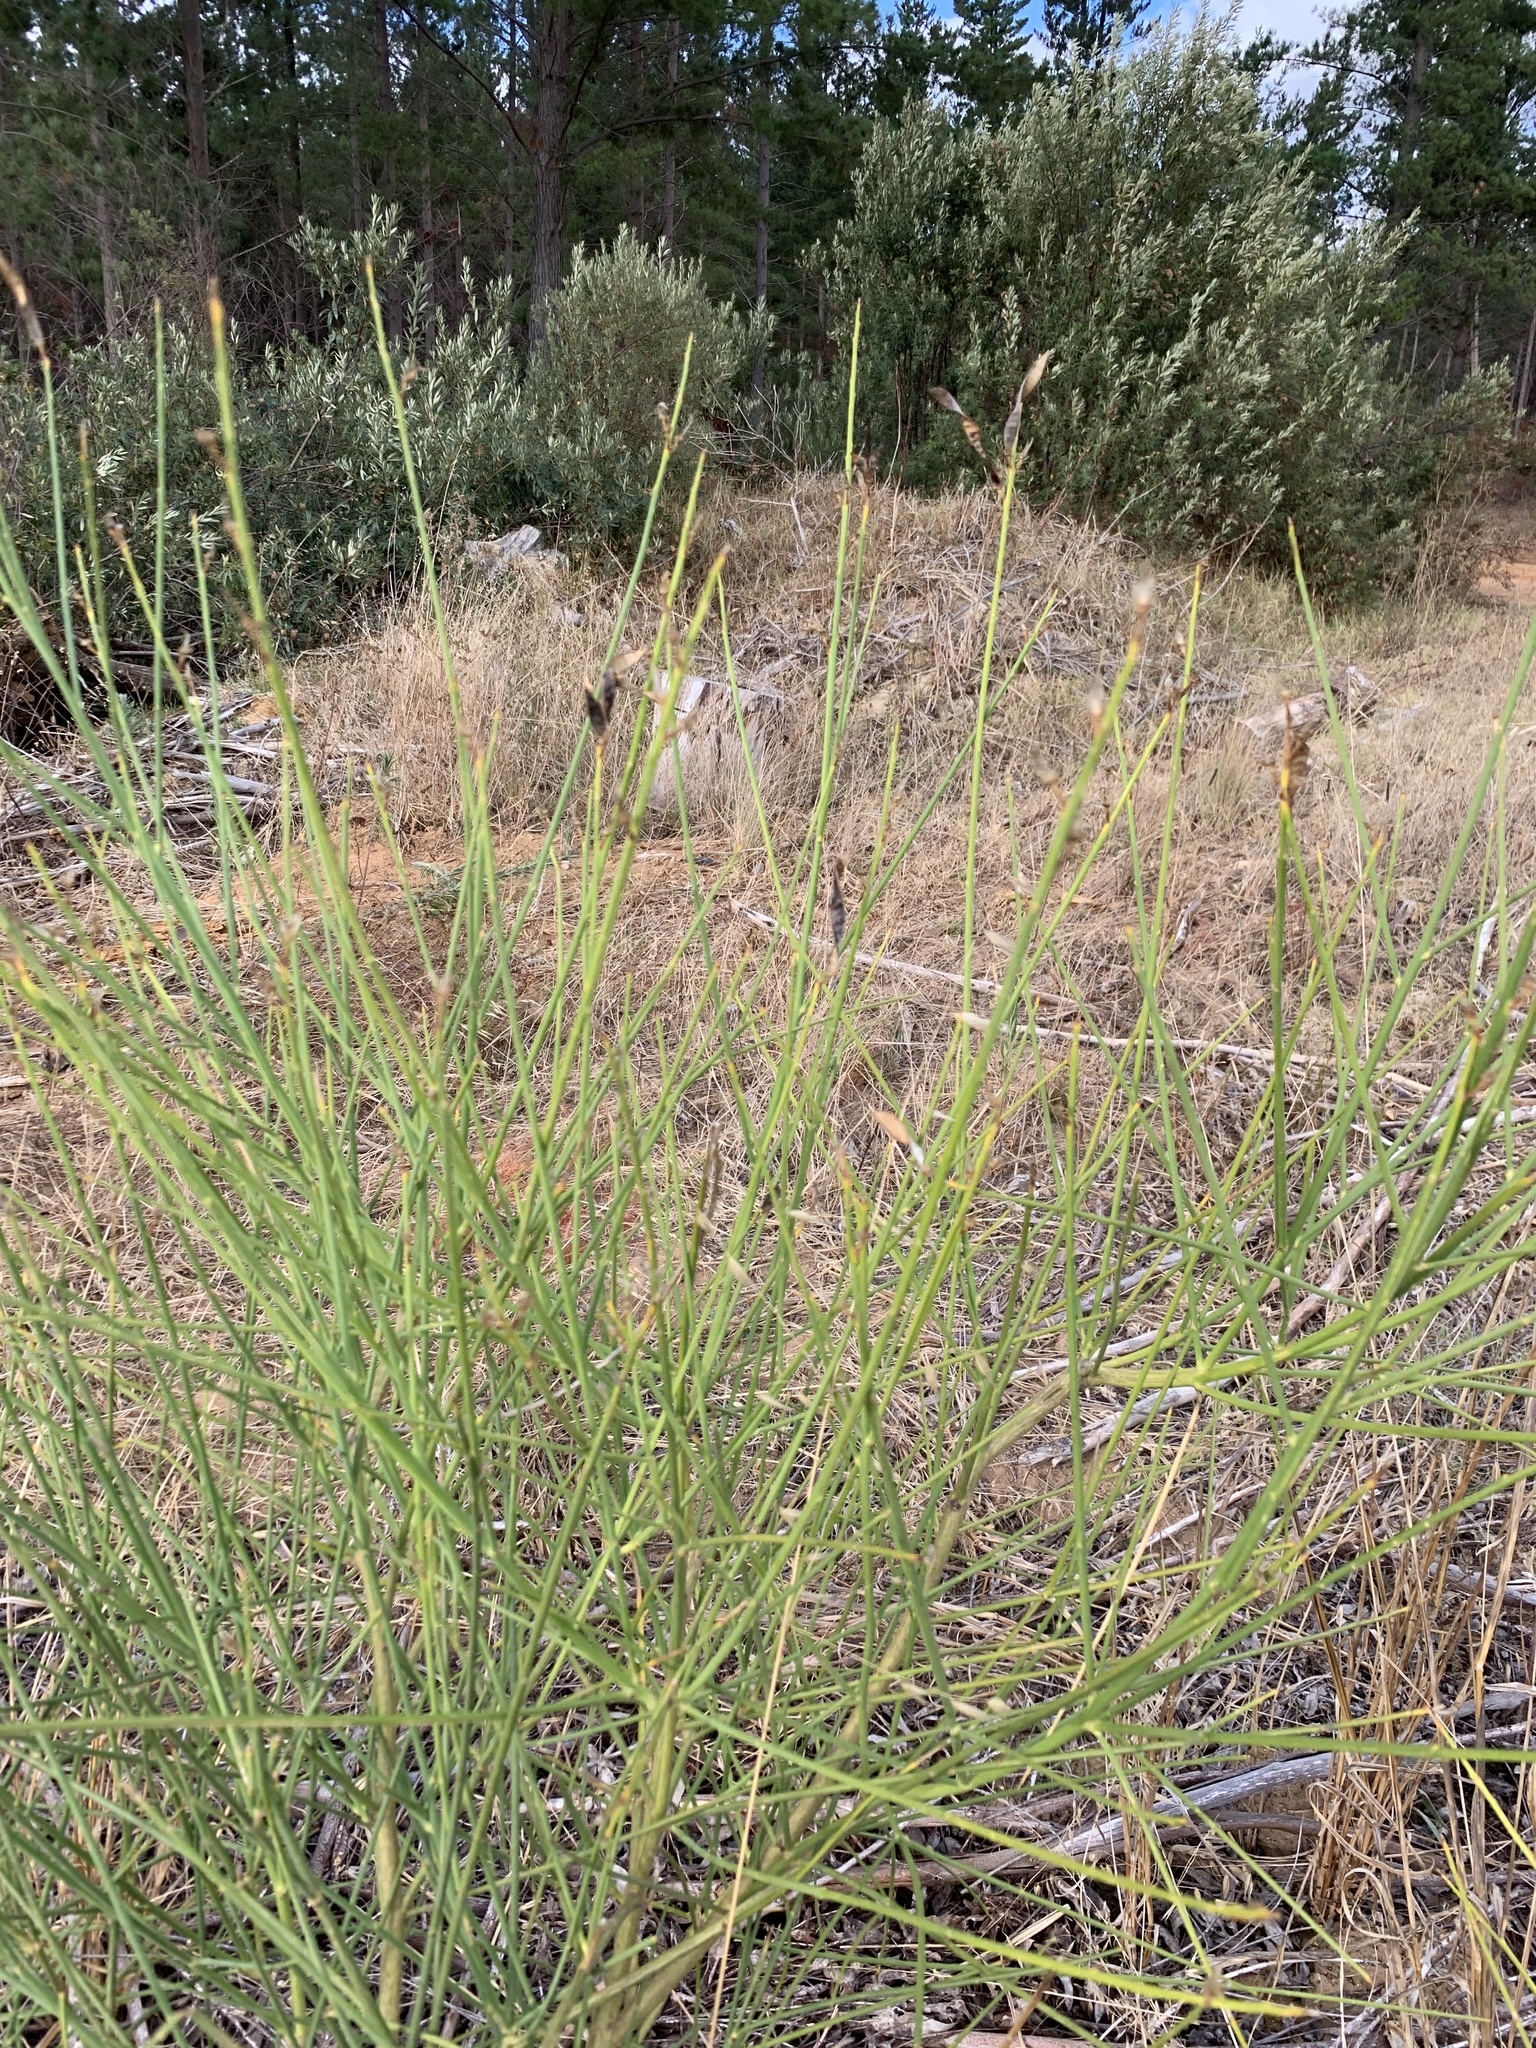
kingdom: Plantae
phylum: Tracheophyta
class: Magnoliopsida
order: Fabales
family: Fabaceae
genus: Spartium
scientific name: Spartium junceum
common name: Spanish broom
